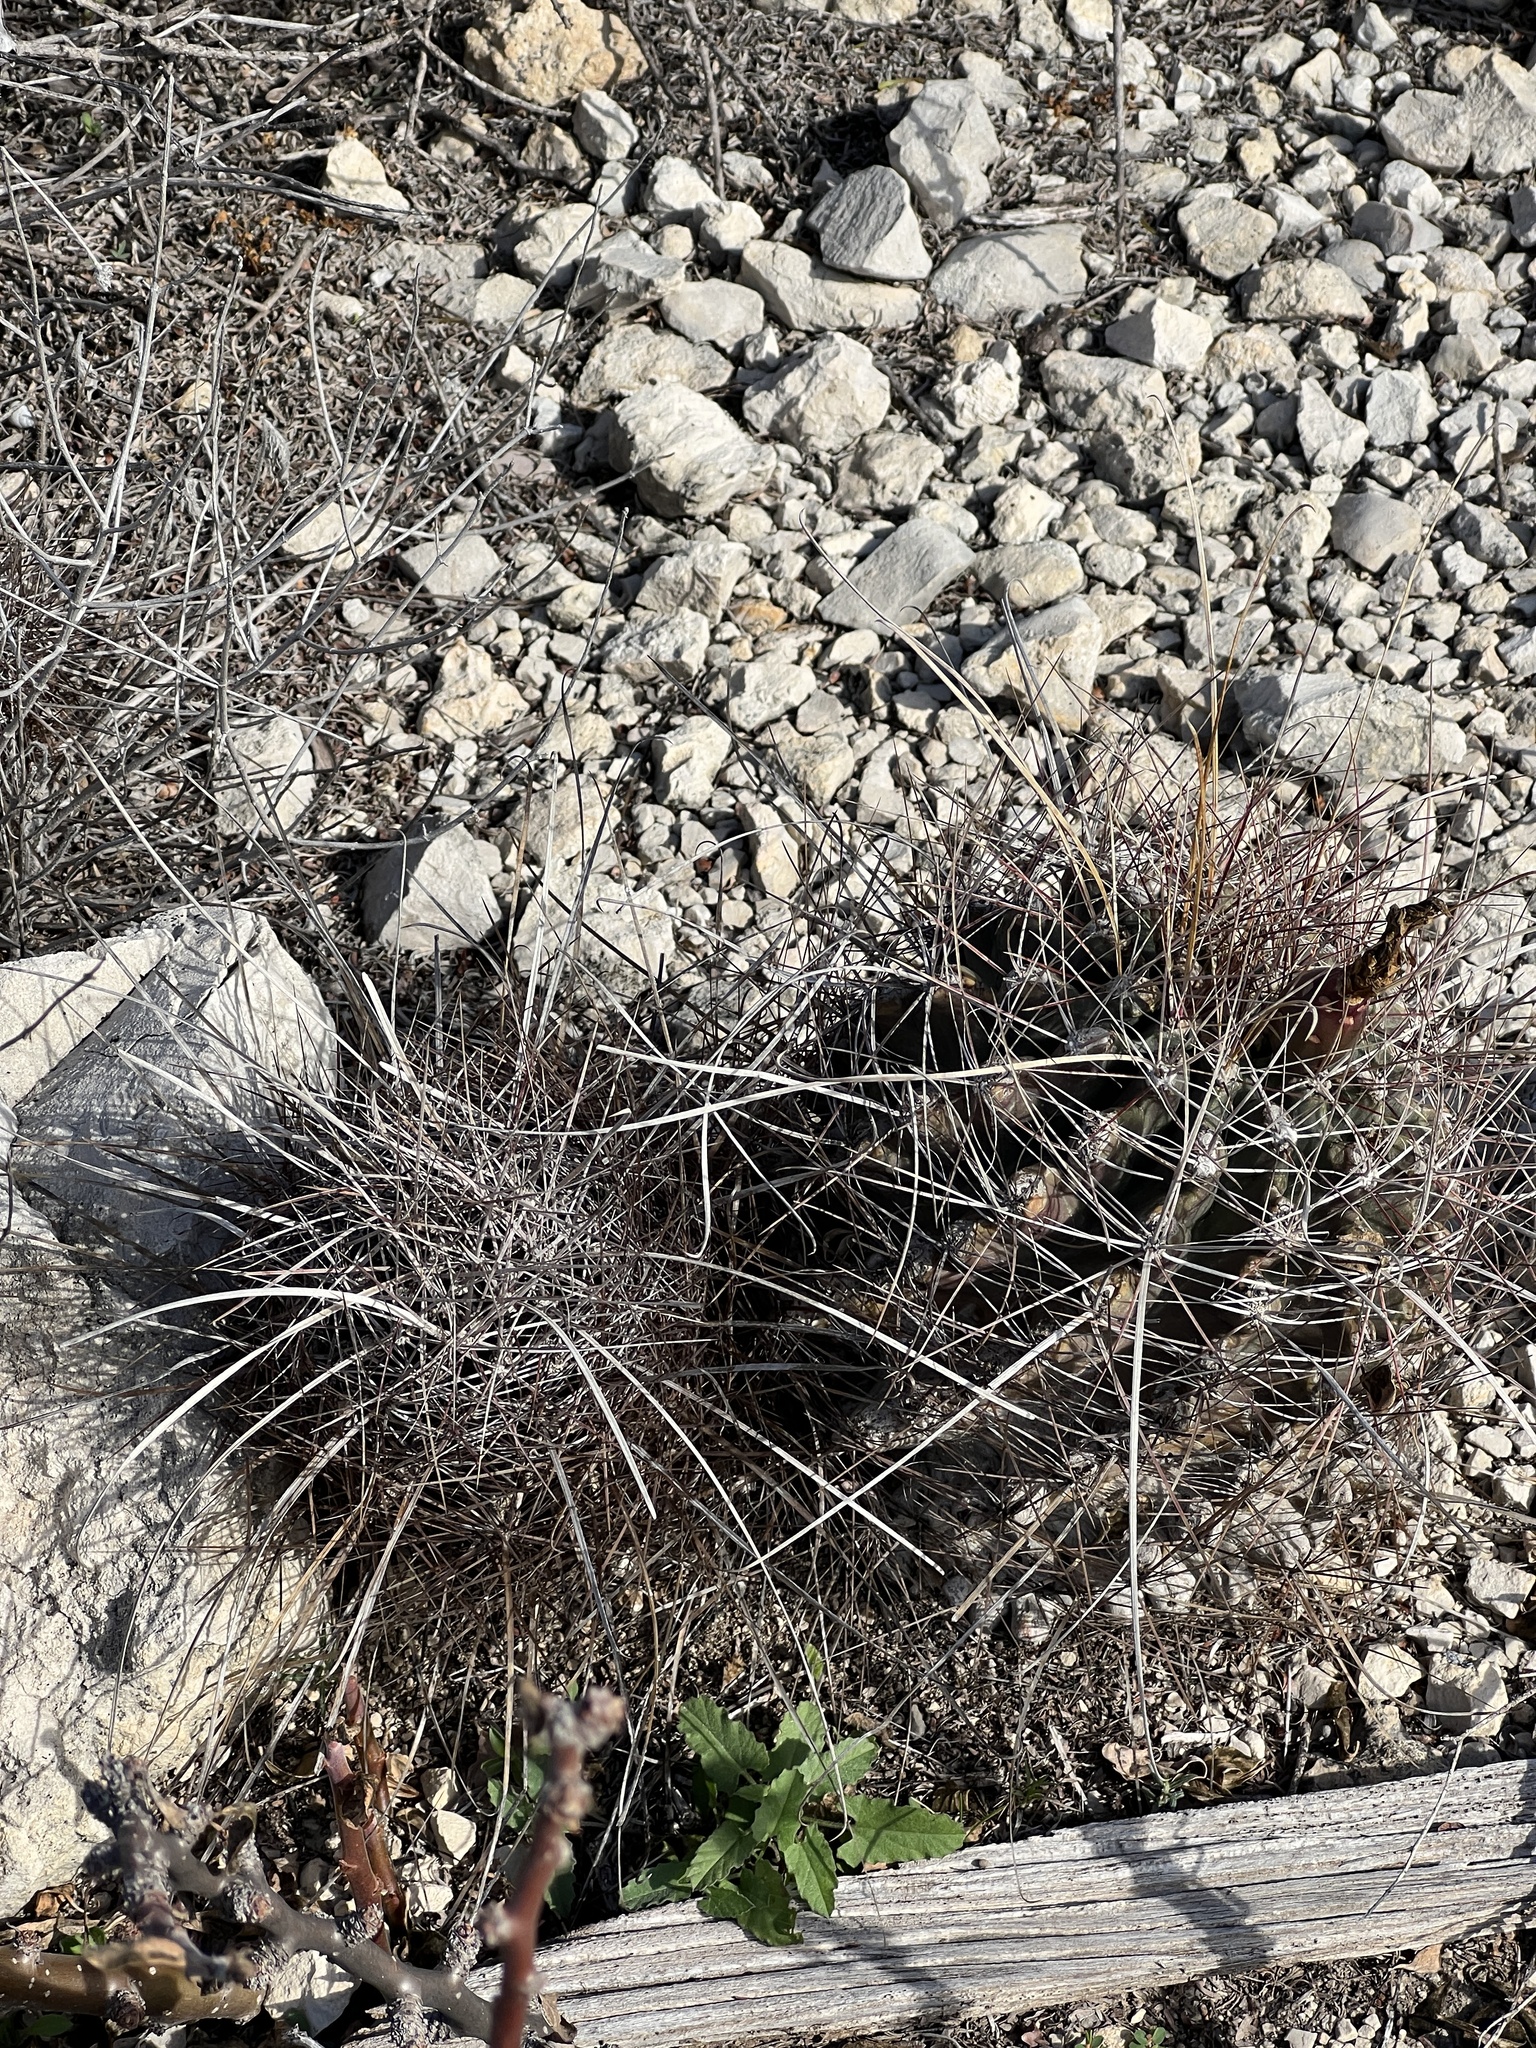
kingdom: Plantae
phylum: Tracheophyta
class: Magnoliopsida
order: Caryophyllales
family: Cactaceae
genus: Bisnaga
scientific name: Bisnaga hamatacantha
